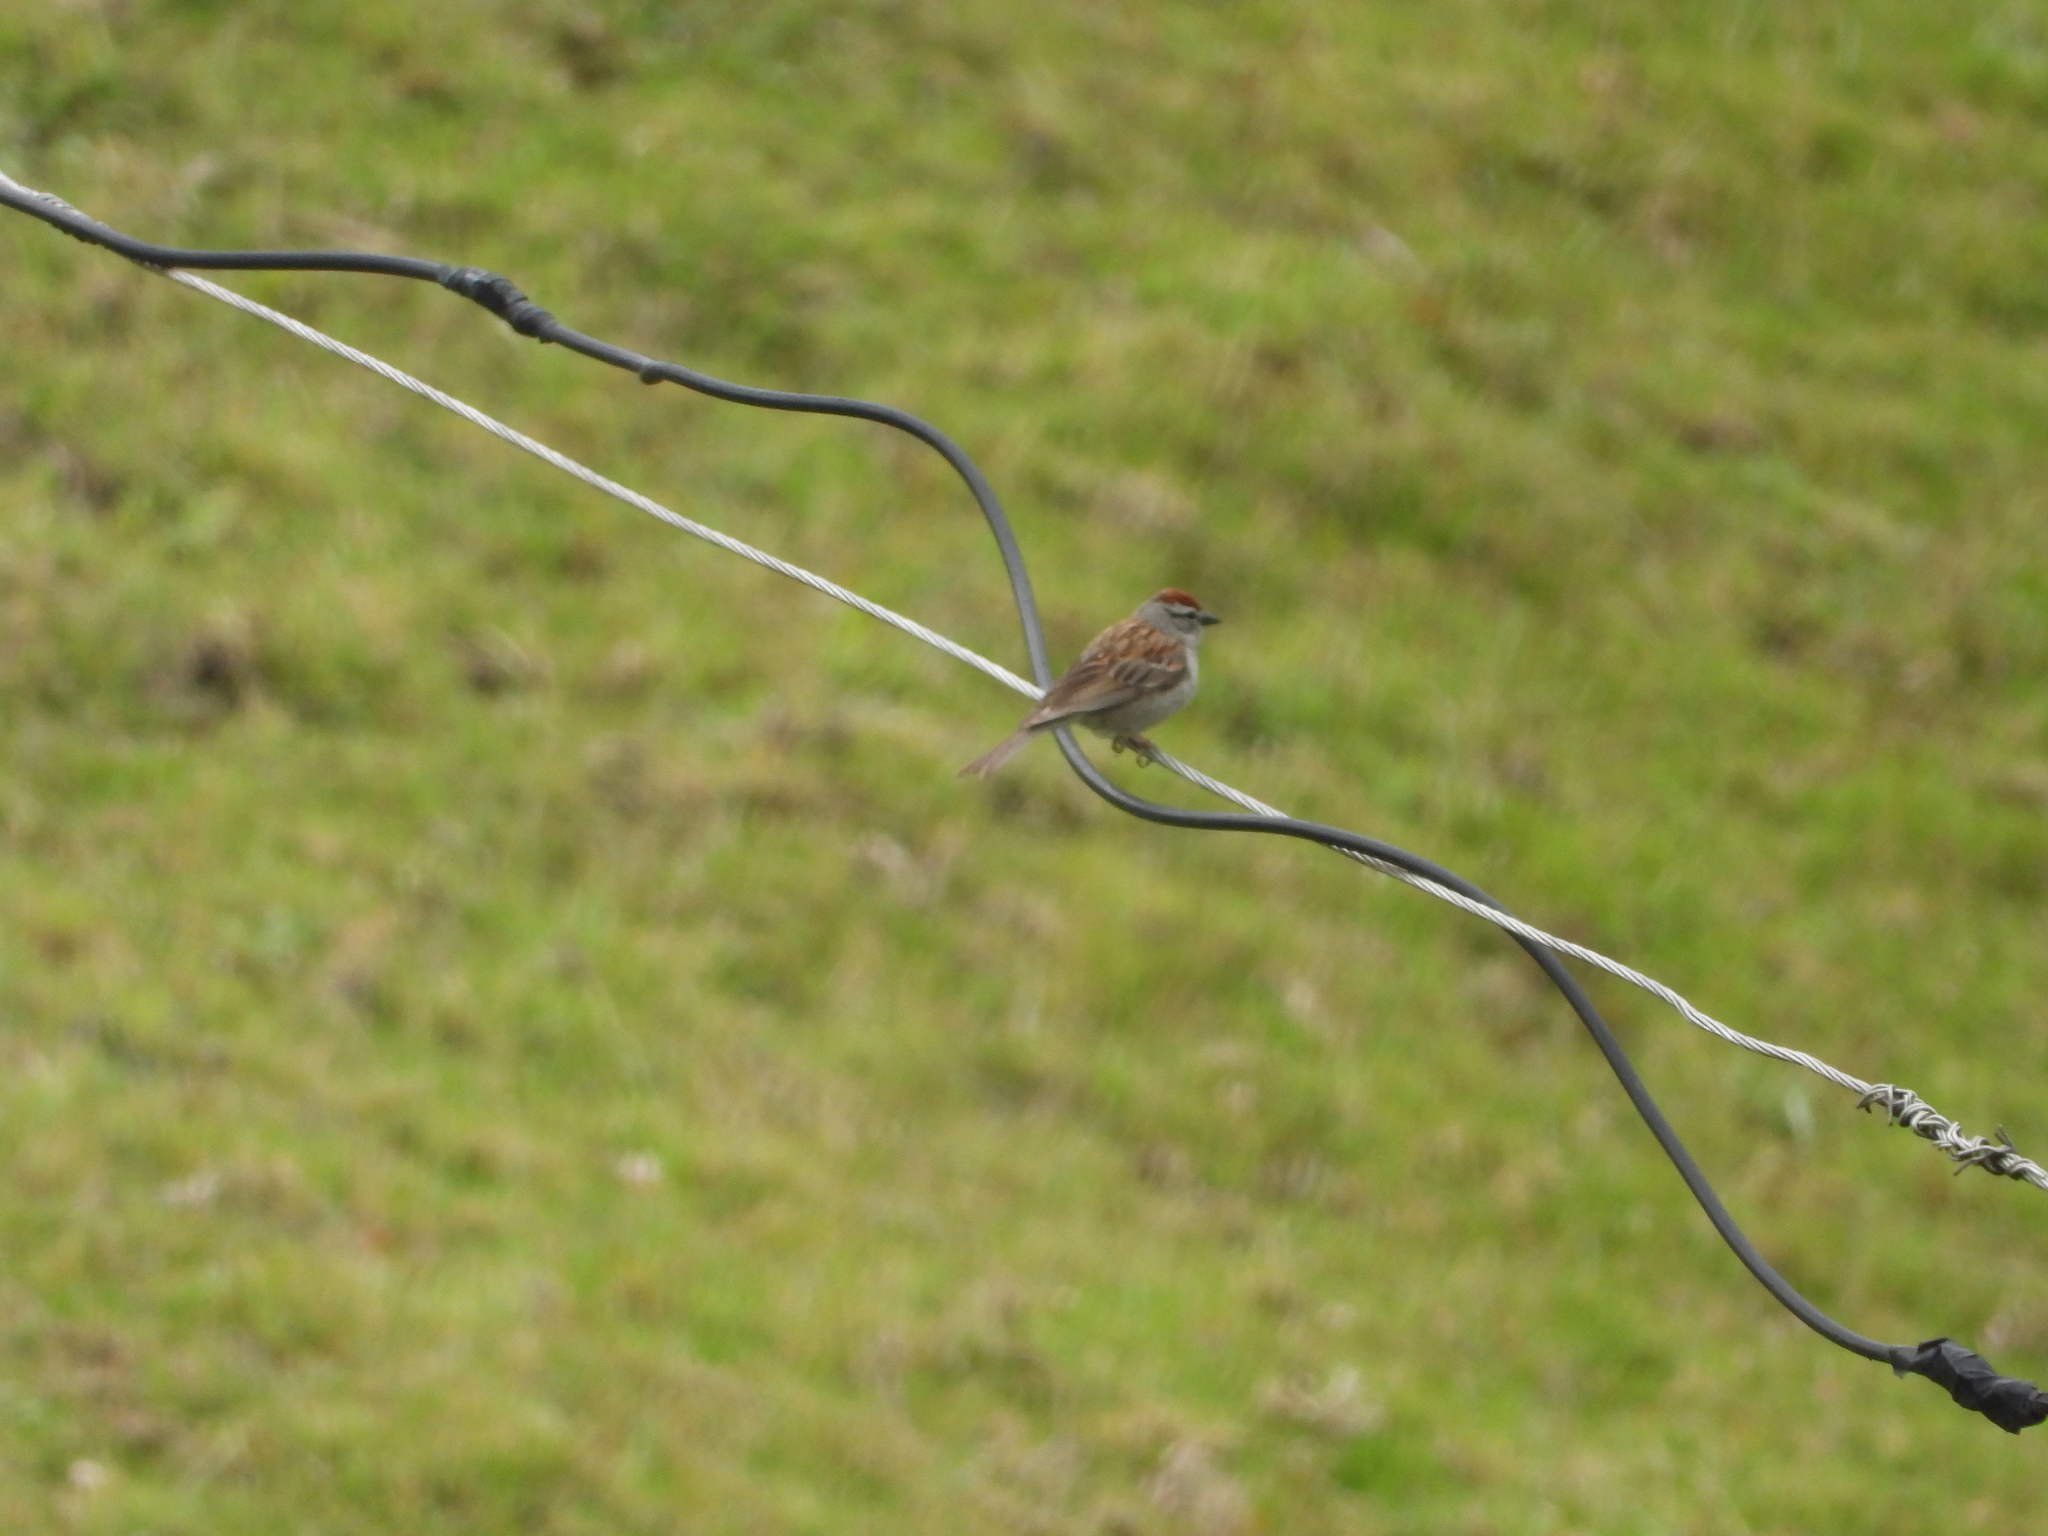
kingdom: Animalia
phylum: Chordata
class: Aves
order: Passeriformes
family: Passerellidae
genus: Spizella
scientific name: Spizella passerina
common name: Chipping sparrow
